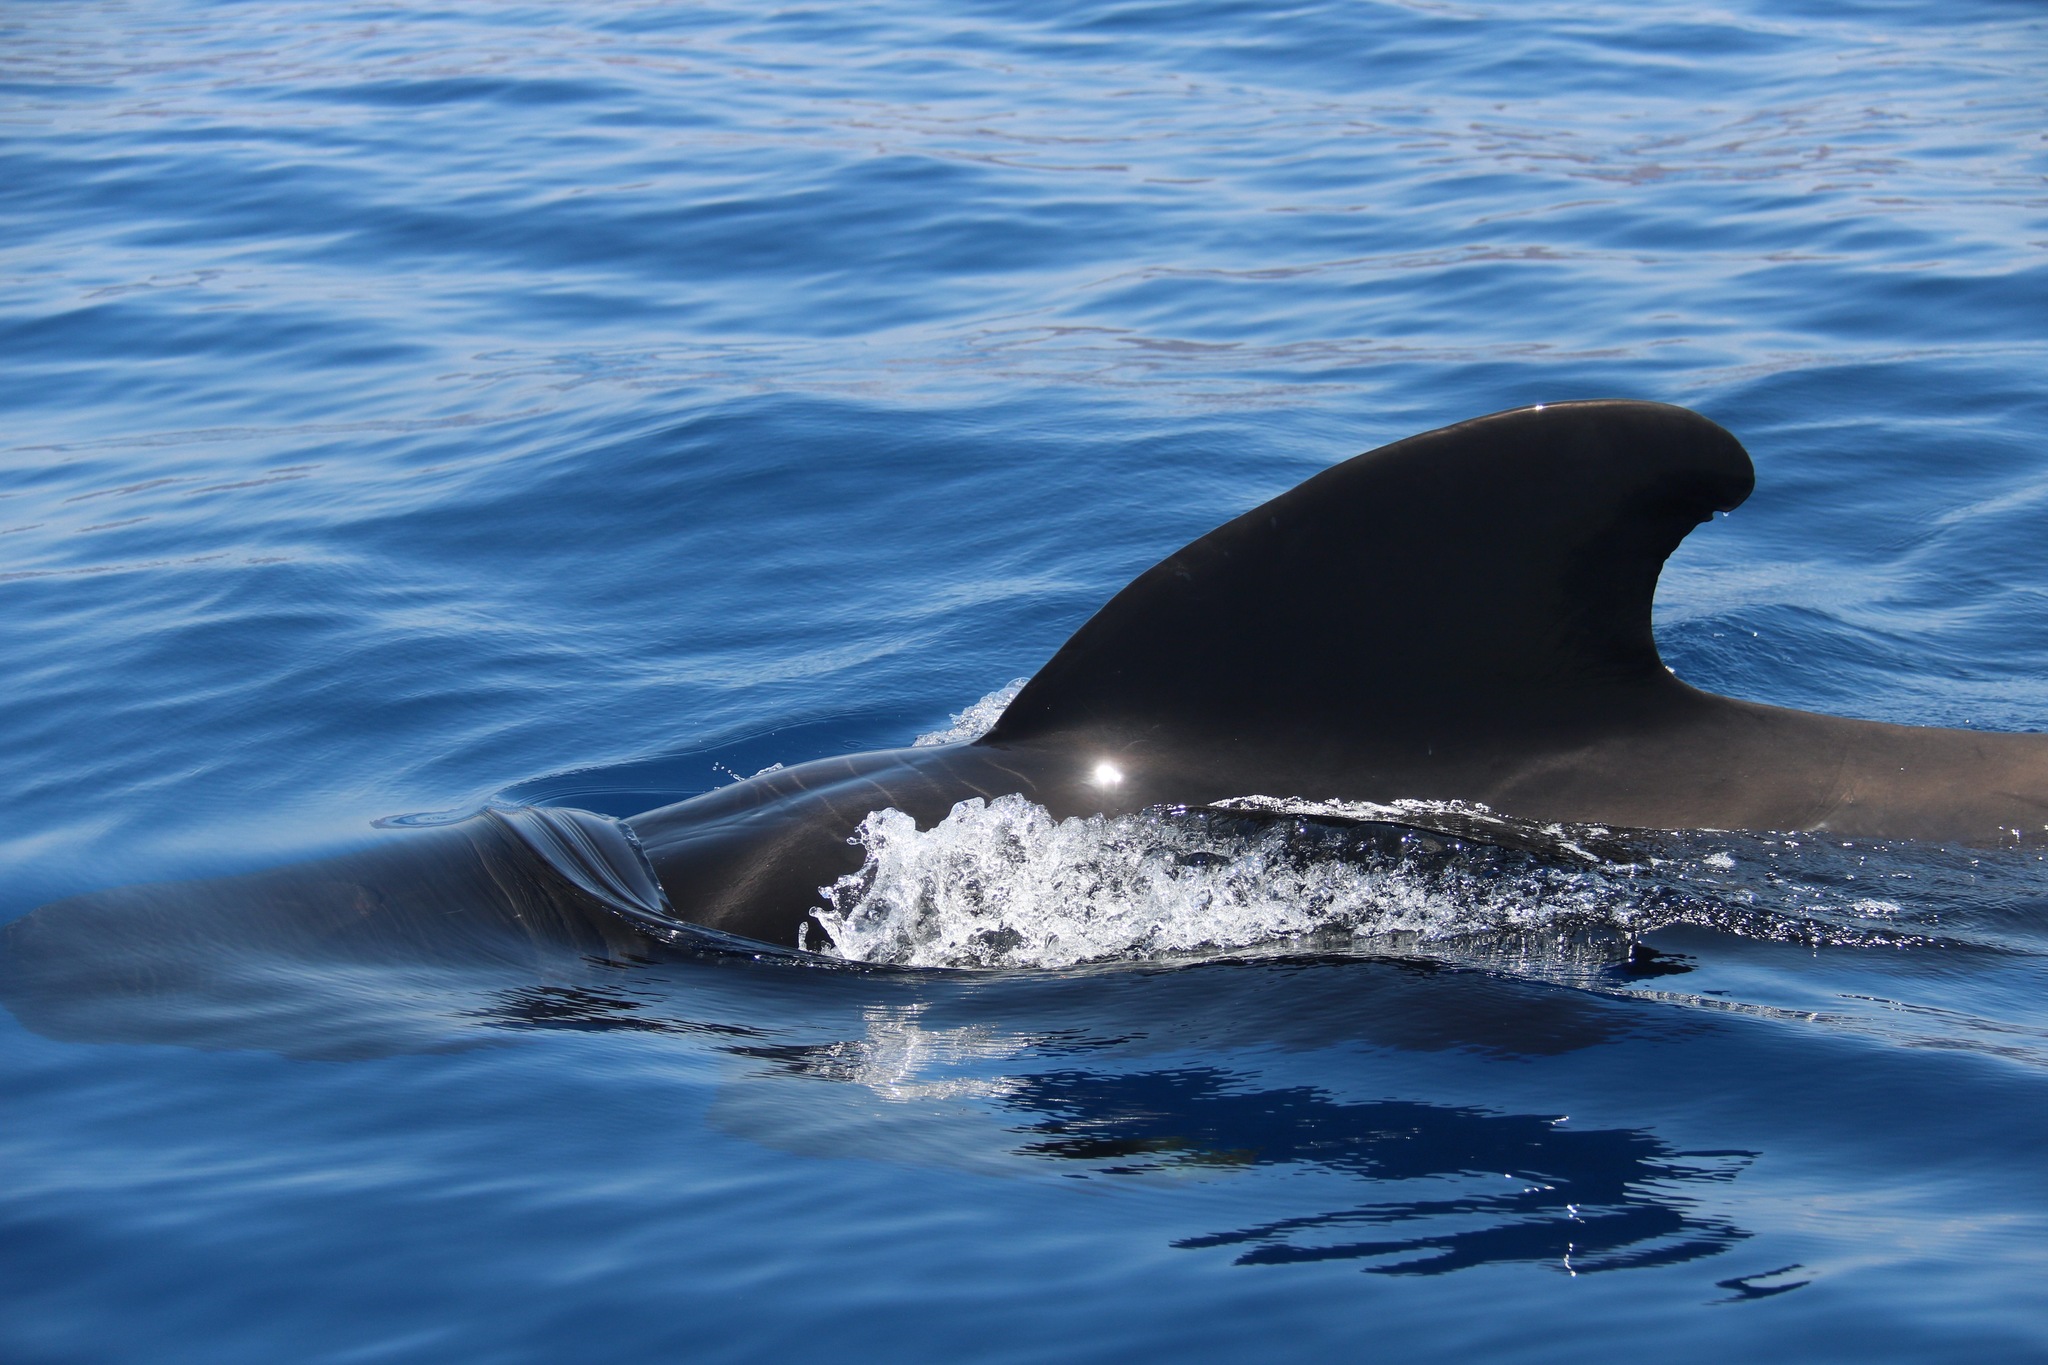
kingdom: Animalia
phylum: Chordata
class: Mammalia
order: Cetacea
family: Delphinidae
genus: Globicephala
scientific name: Globicephala macrorhynchus
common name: Short-finned pilot whale
